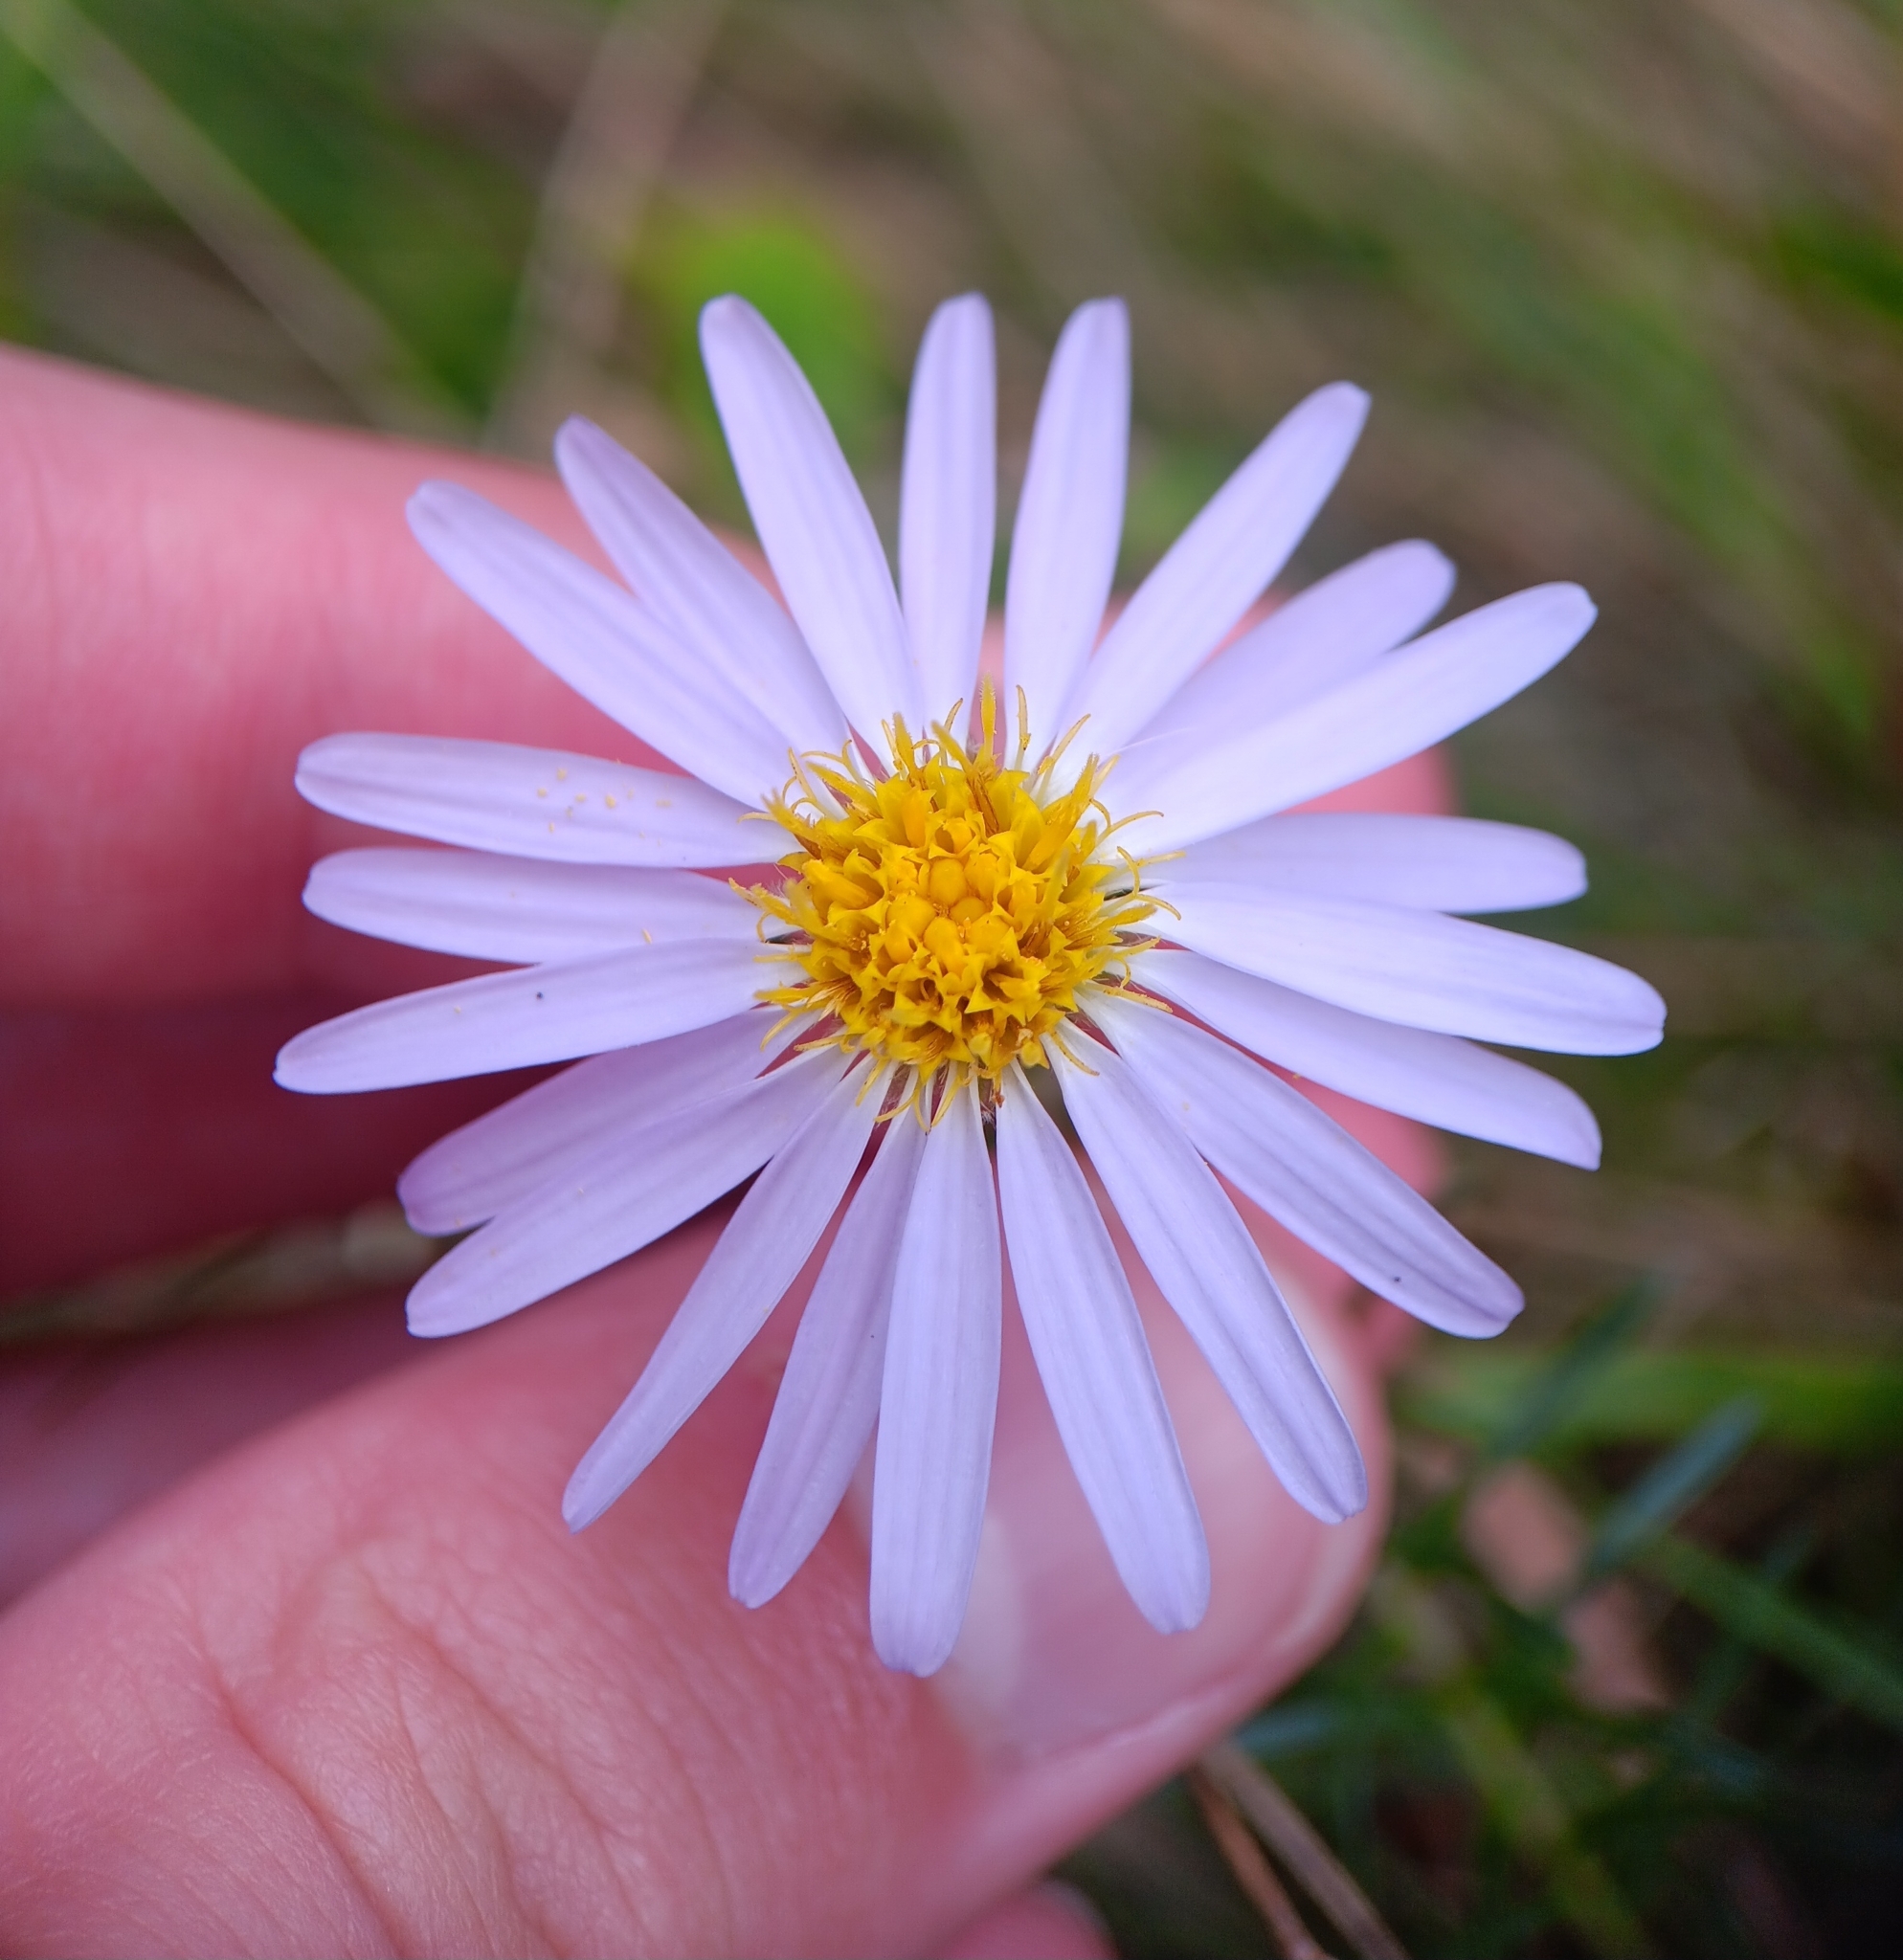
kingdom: Plantae
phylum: Tracheophyta
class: Magnoliopsida
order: Asterales
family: Asteraceae
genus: Ionactis
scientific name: Ionactis linariifolia
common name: Flax-leaf aster
